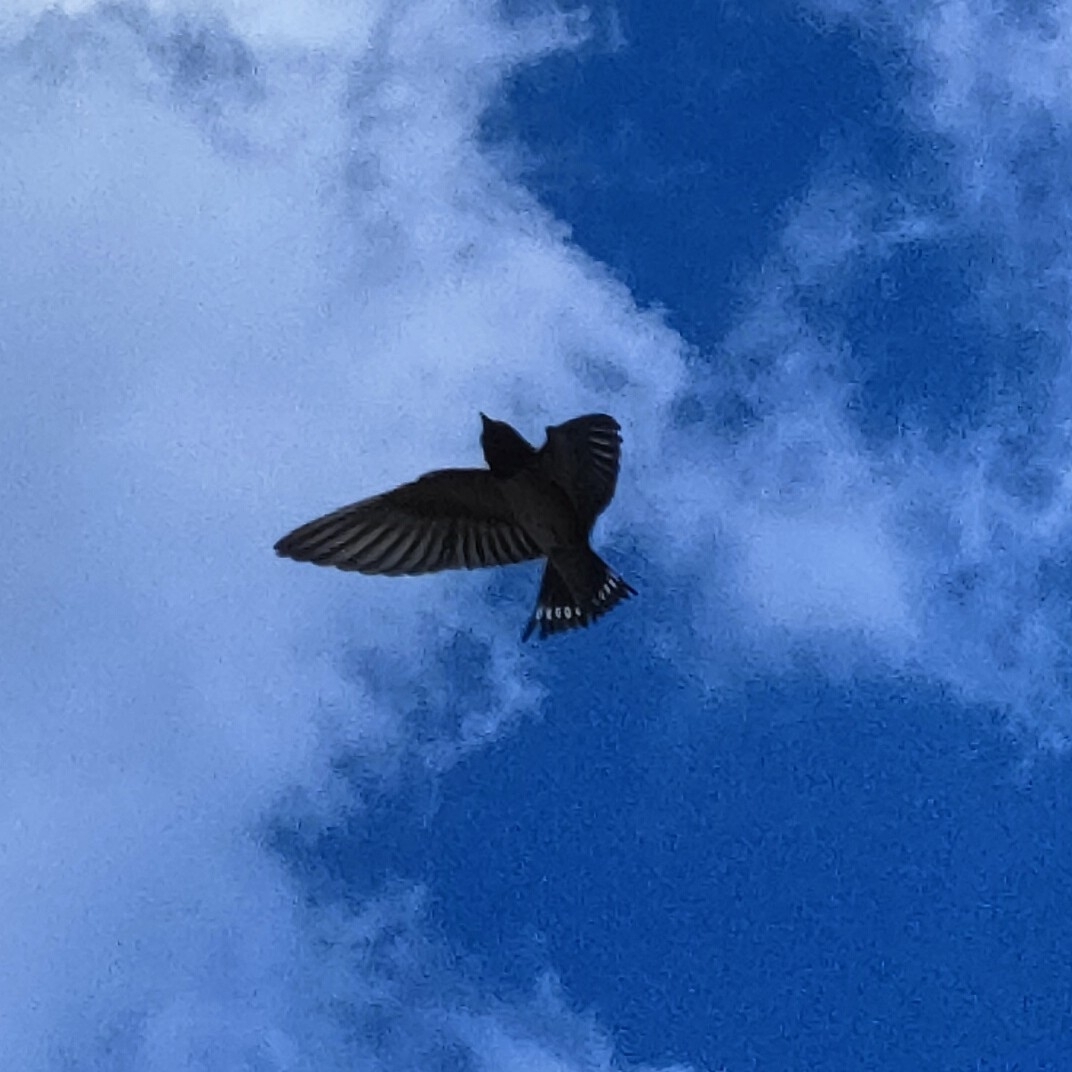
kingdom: Animalia
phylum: Chordata
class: Aves
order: Passeriformes
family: Hirundinidae
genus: Hirundo
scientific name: Hirundo rustica
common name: Barn swallow
